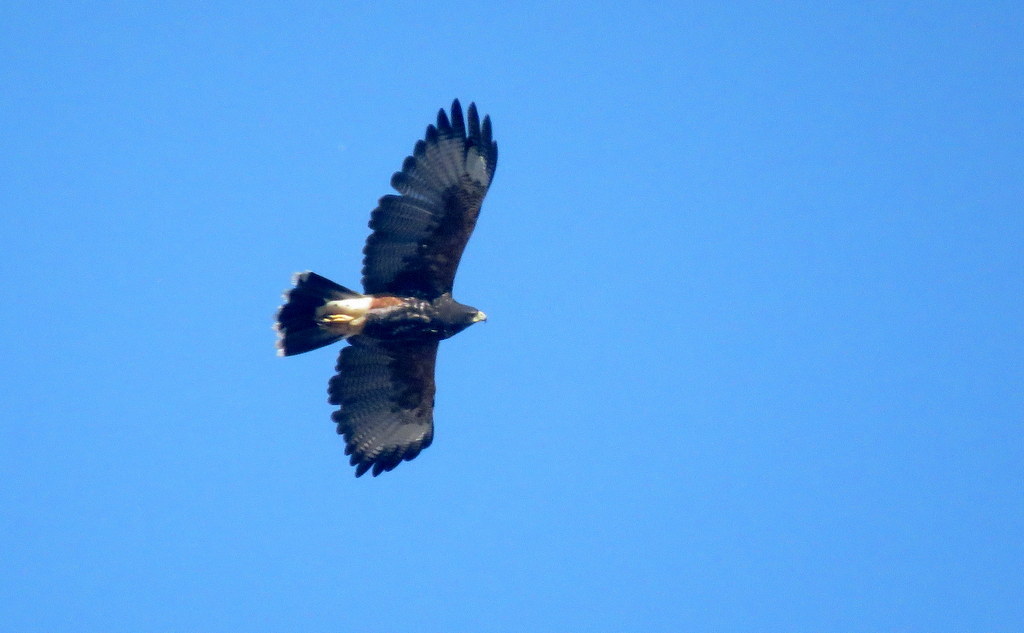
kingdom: Animalia
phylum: Chordata
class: Aves
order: Accipitriformes
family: Accipitridae
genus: Parabuteo
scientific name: Parabuteo unicinctus
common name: Harris's hawk
